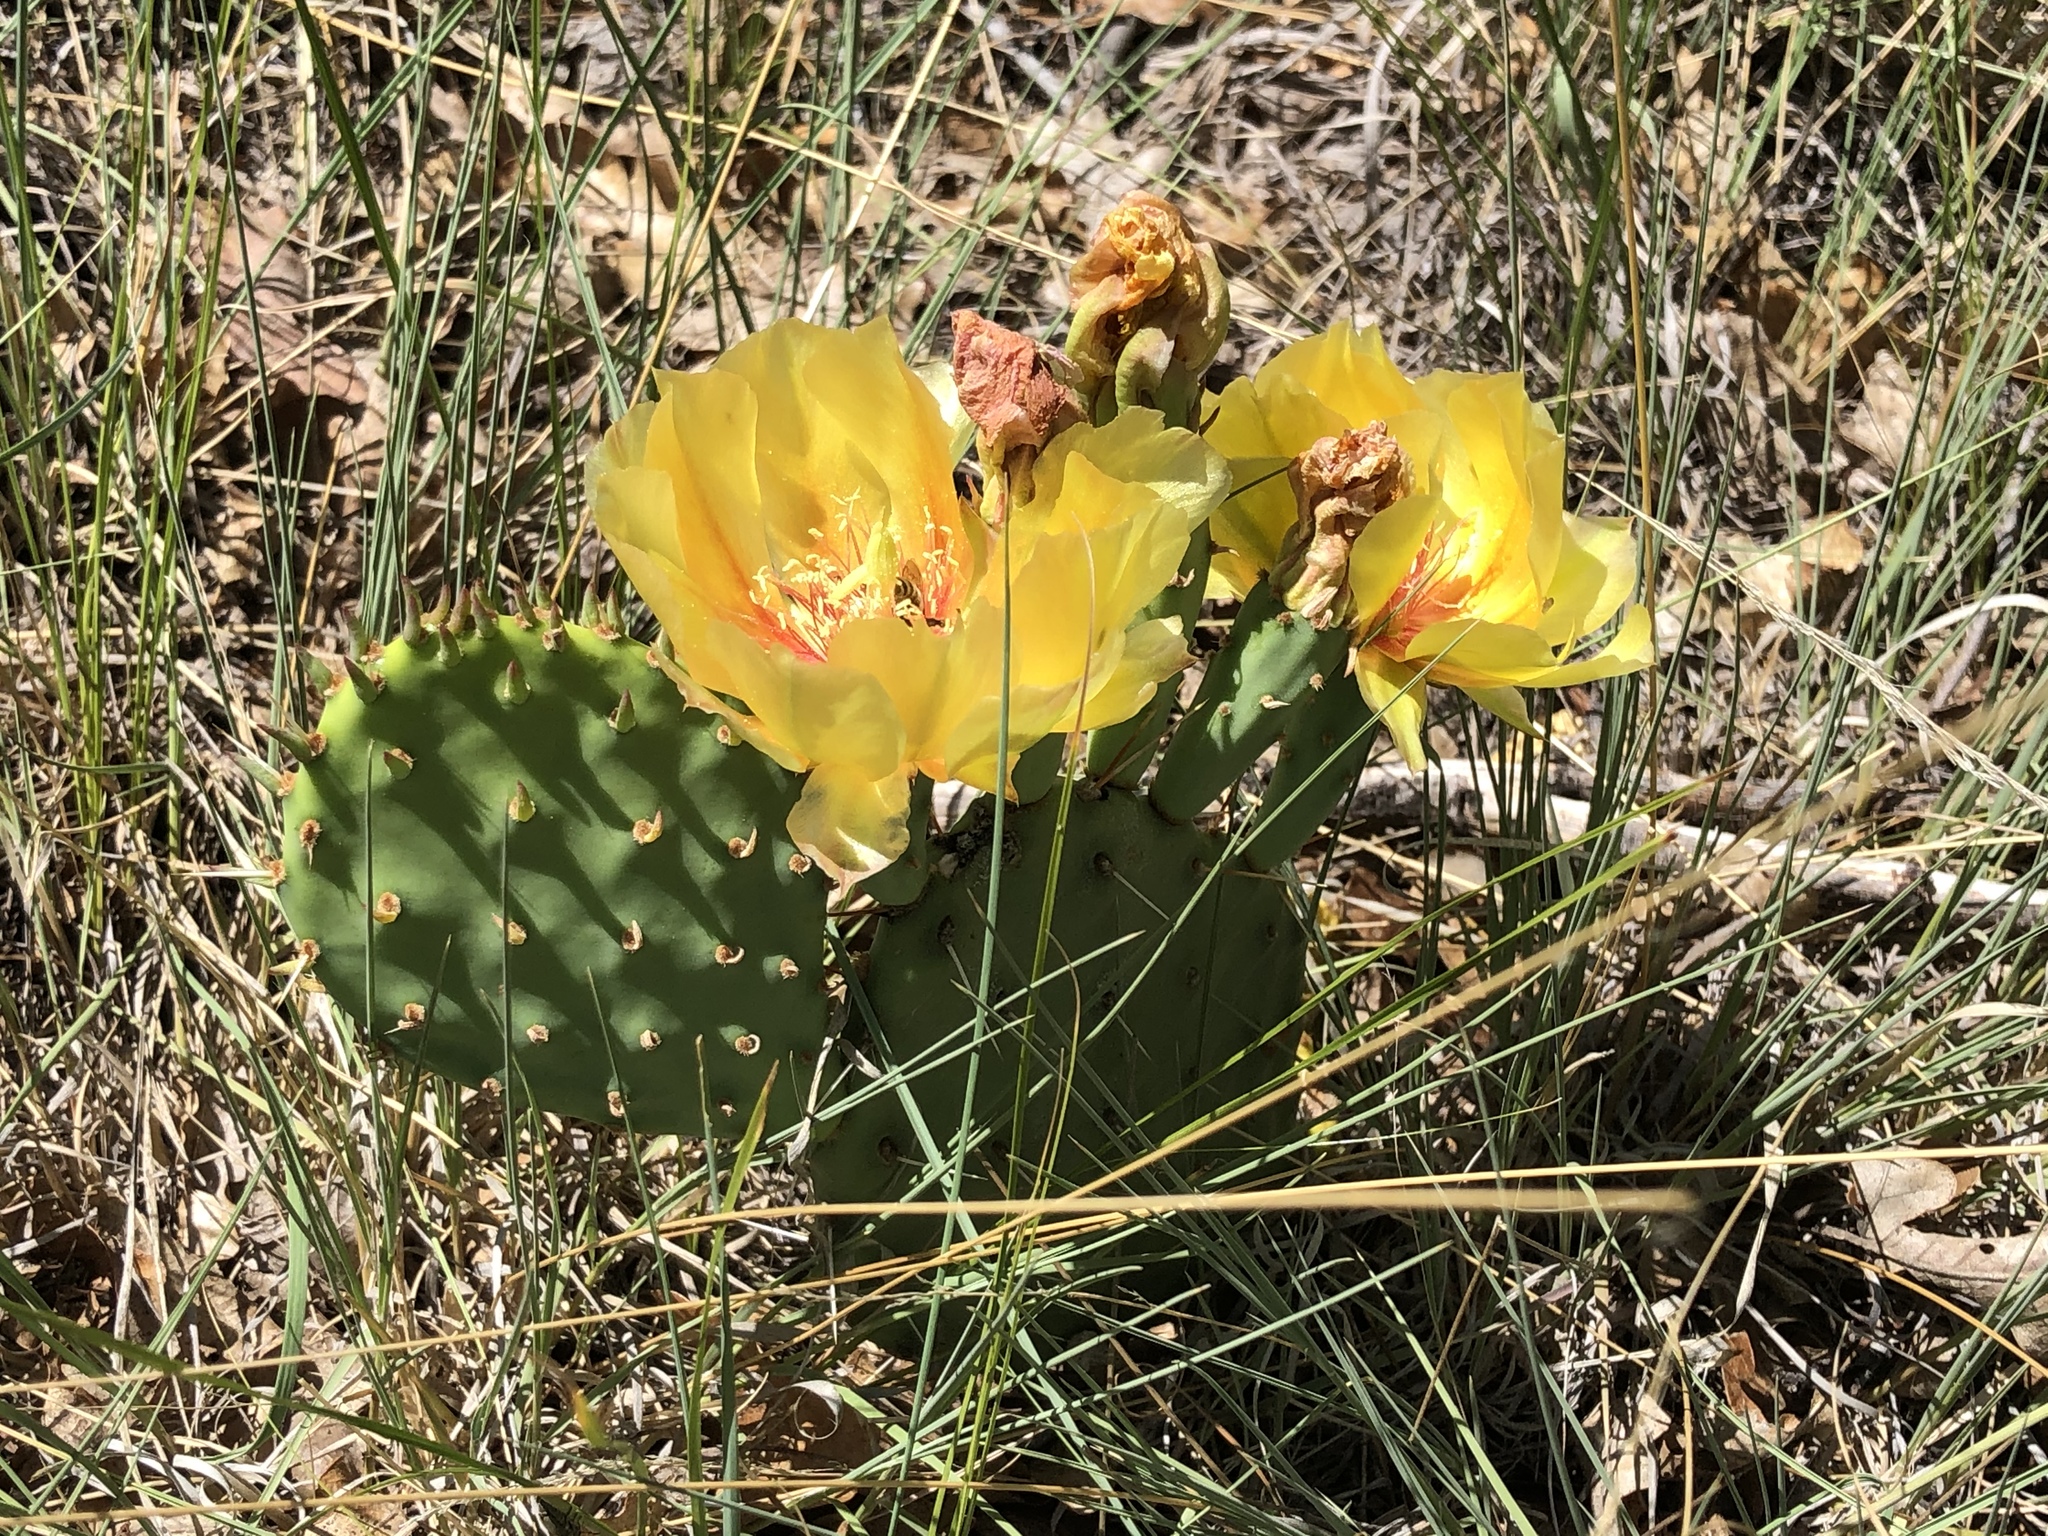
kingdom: Plantae
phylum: Tracheophyta
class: Magnoliopsida
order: Caryophyllales
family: Cactaceae
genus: Opuntia
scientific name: Opuntia macrorhiza
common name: Grassland pricklypear
